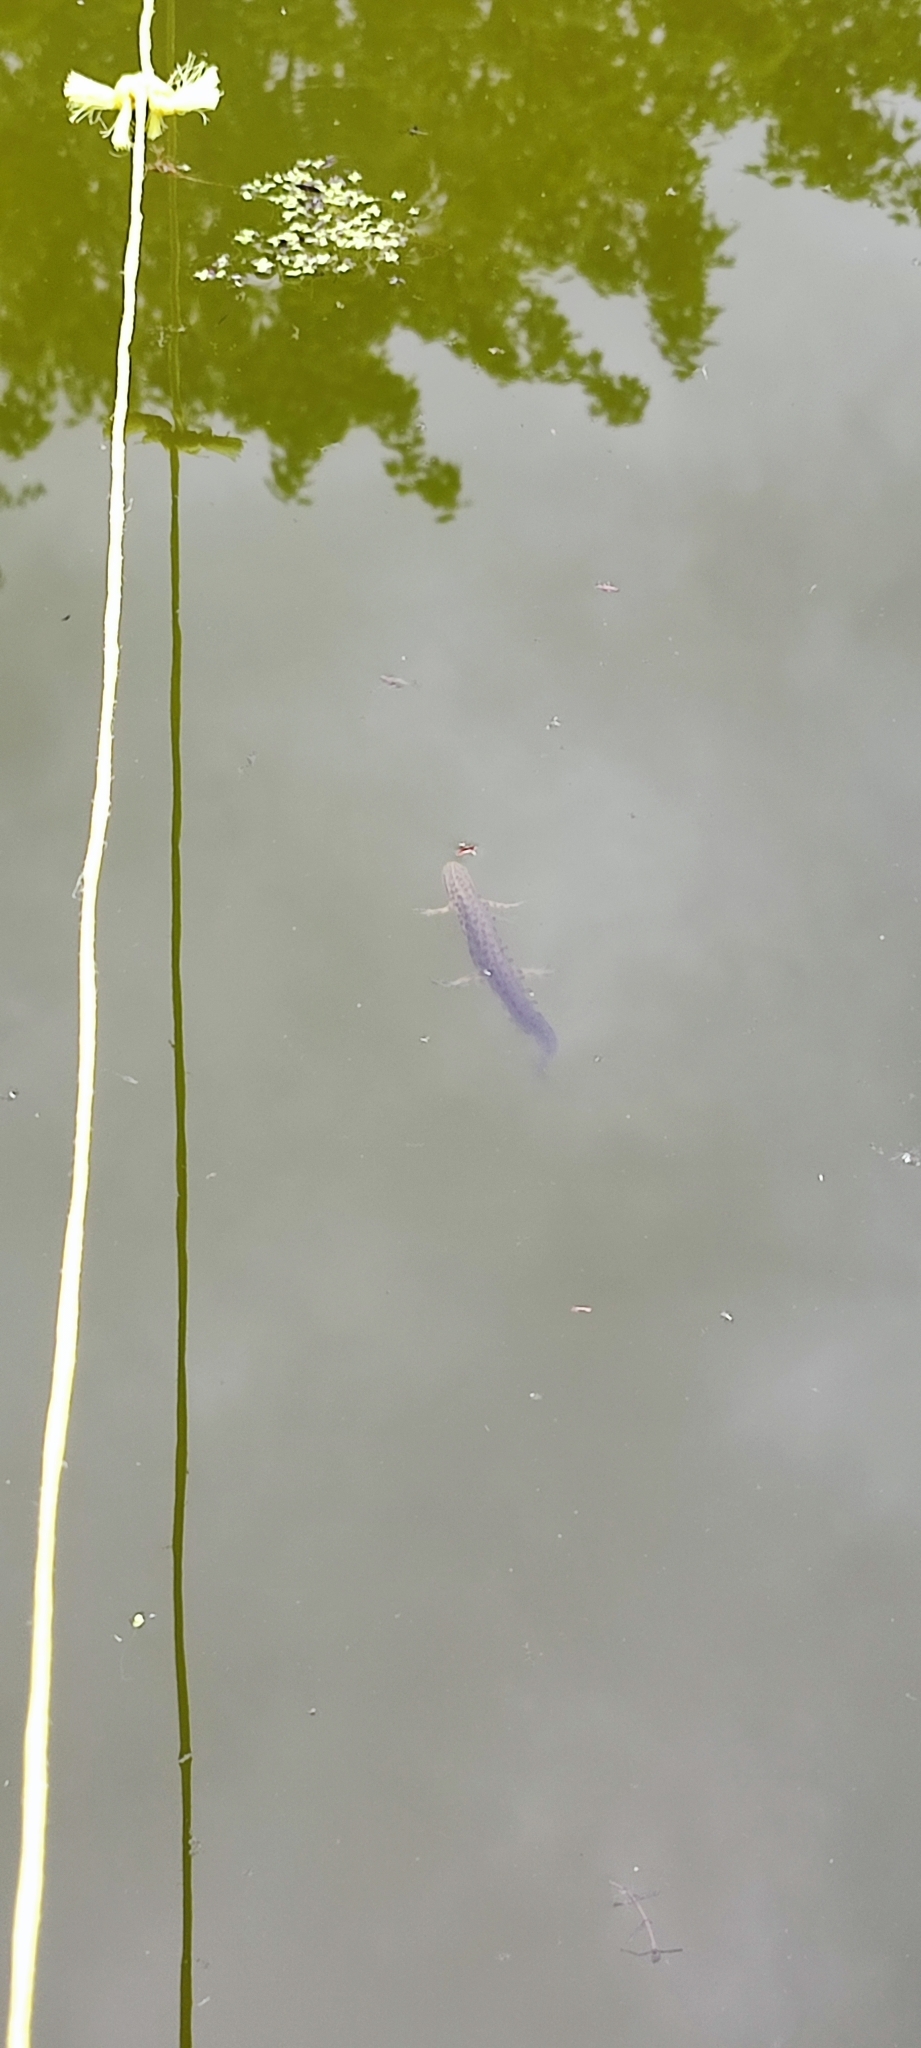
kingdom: Animalia
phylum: Chordata
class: Amphibia
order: Caudata
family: Salamandridae
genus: Lissotriton
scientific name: Lissotriton vulgaris
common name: Smooth newt
